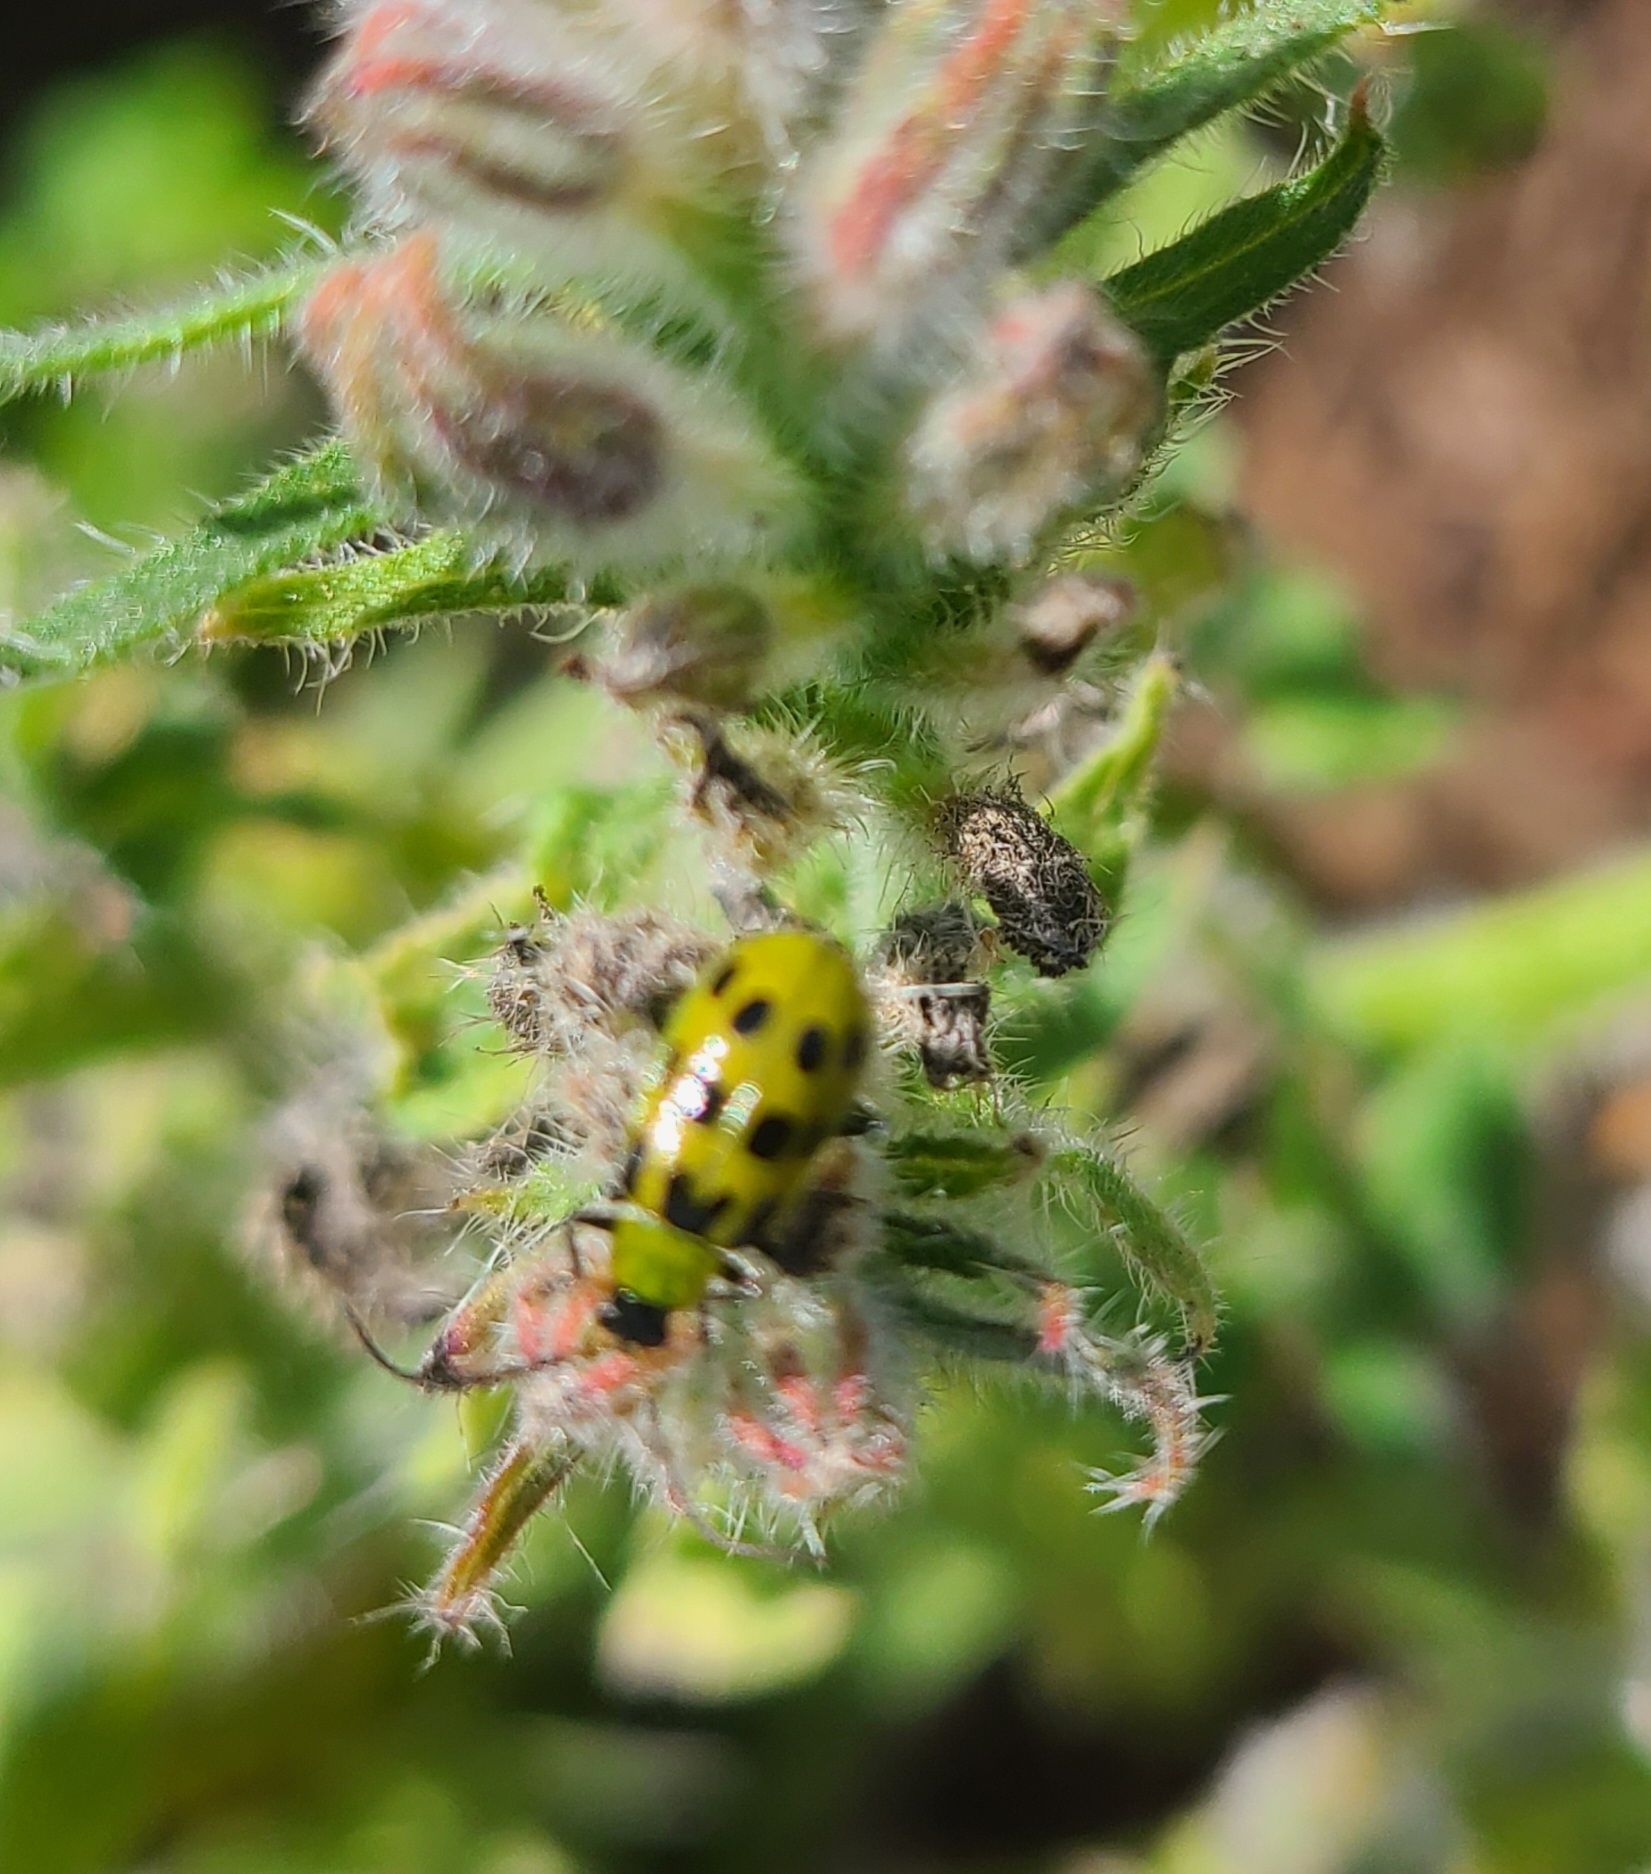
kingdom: Animalia
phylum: Arthropoda
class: Insecta
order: Coleoptera
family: Chrysomelidae
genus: Diabrotica
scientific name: Diabrotica undecimpunctata
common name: Spotted cucumber beetle
